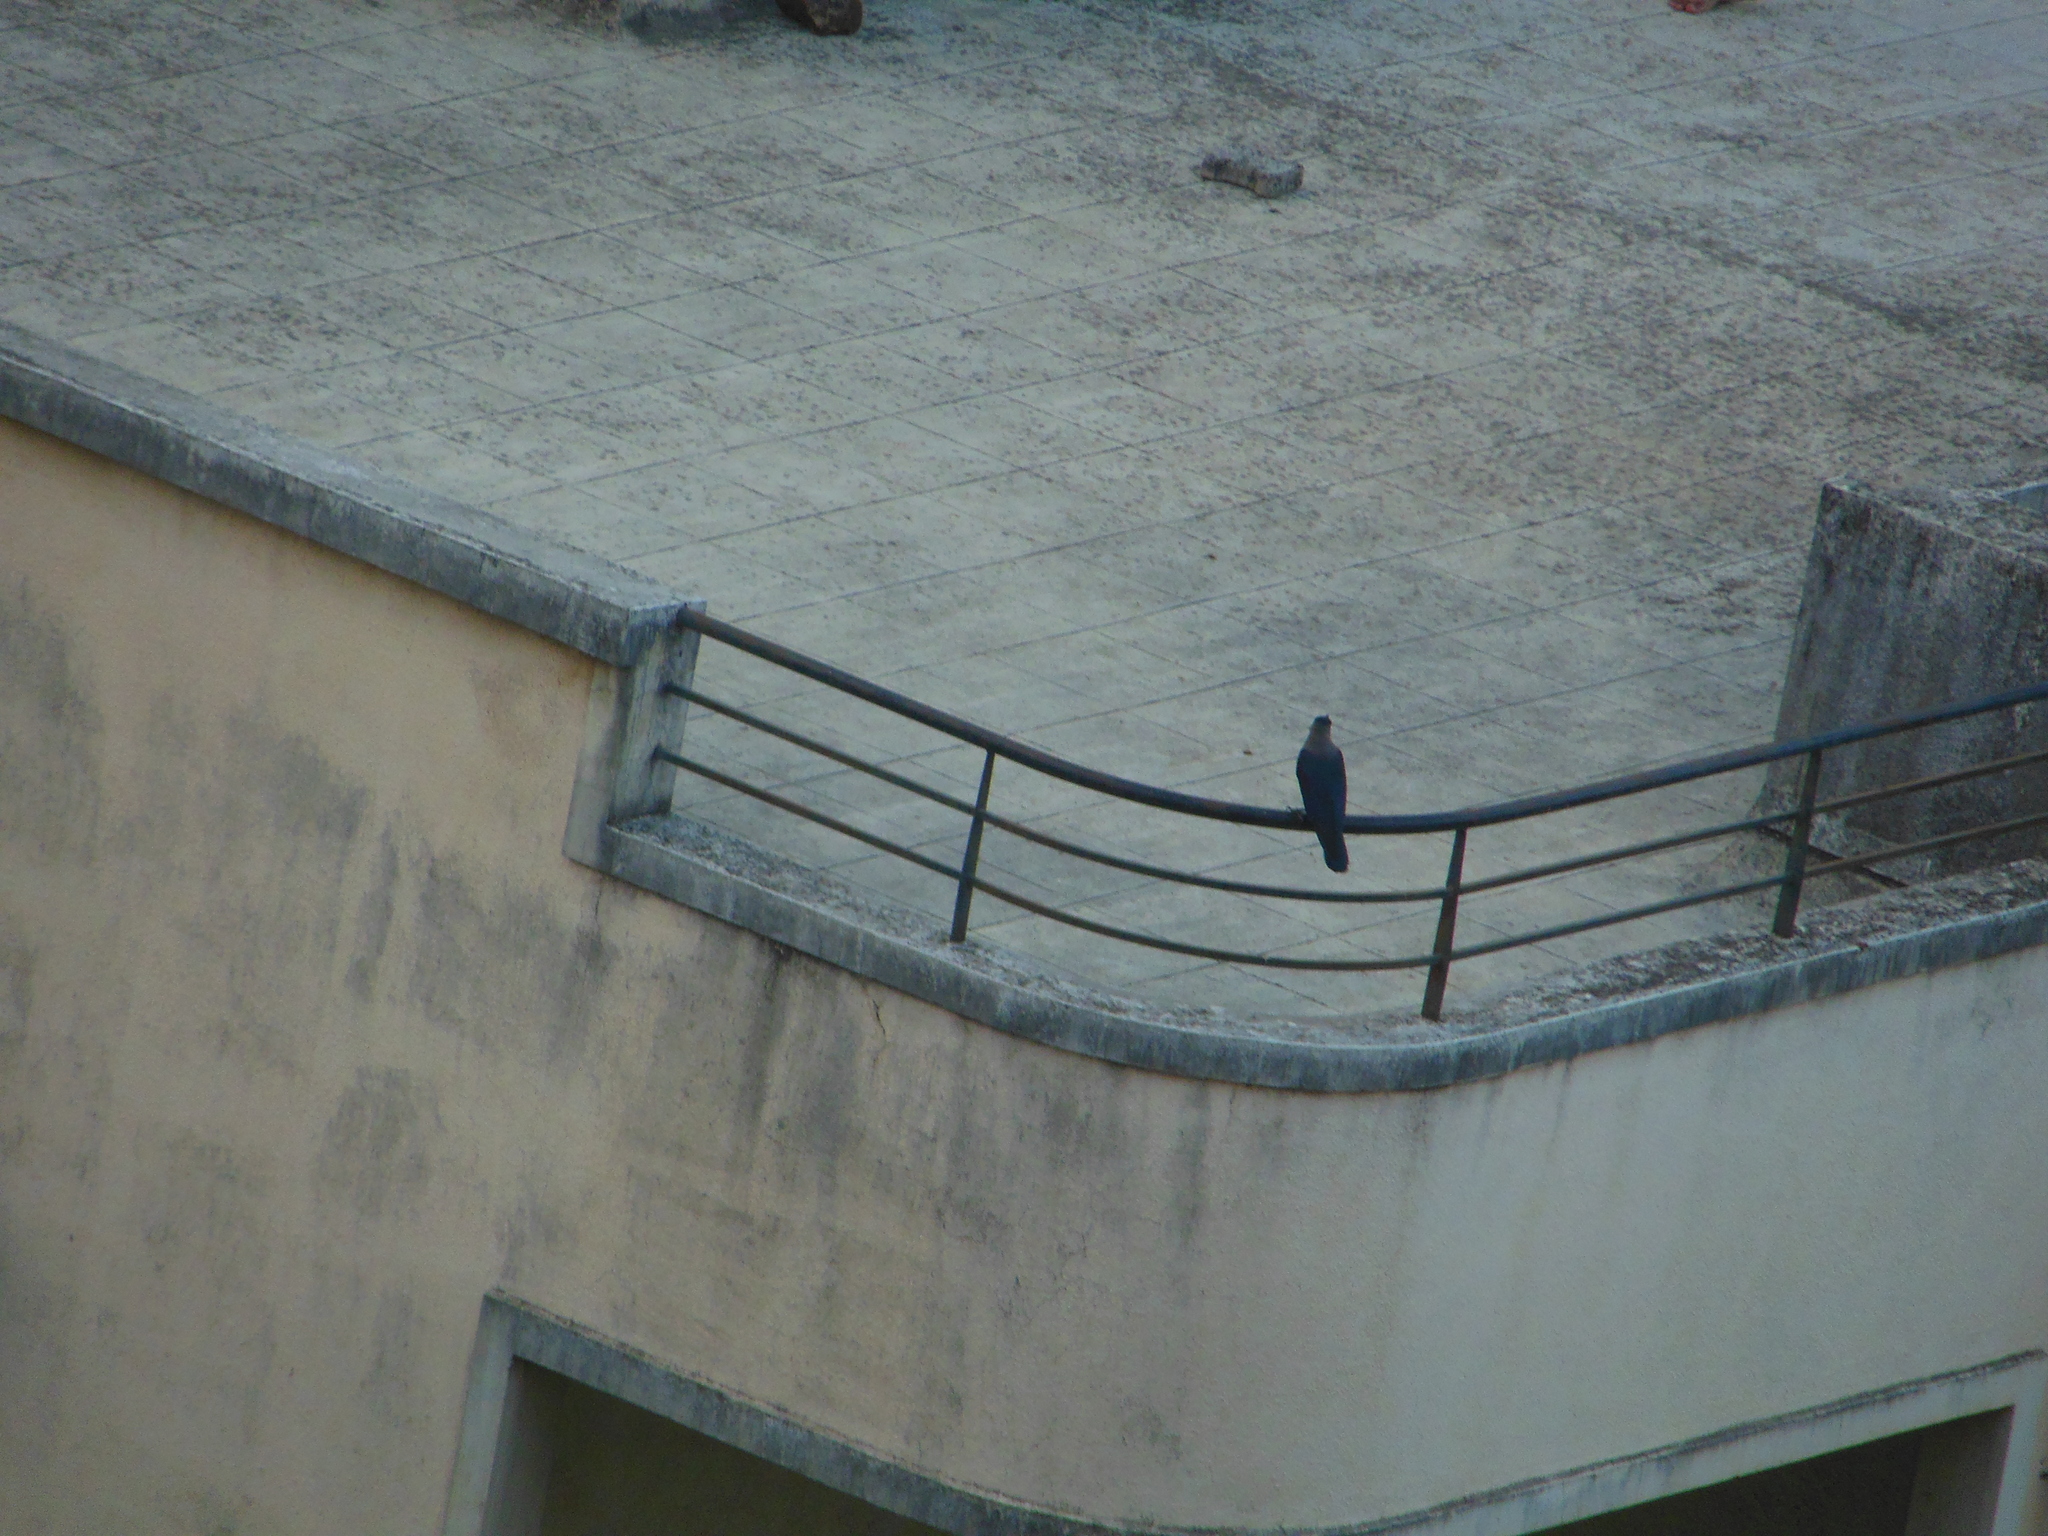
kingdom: Animalia
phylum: Chordata
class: Aves
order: Passeriformes
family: Corvidae
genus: Corvus
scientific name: Corvus splendens
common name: House crow
